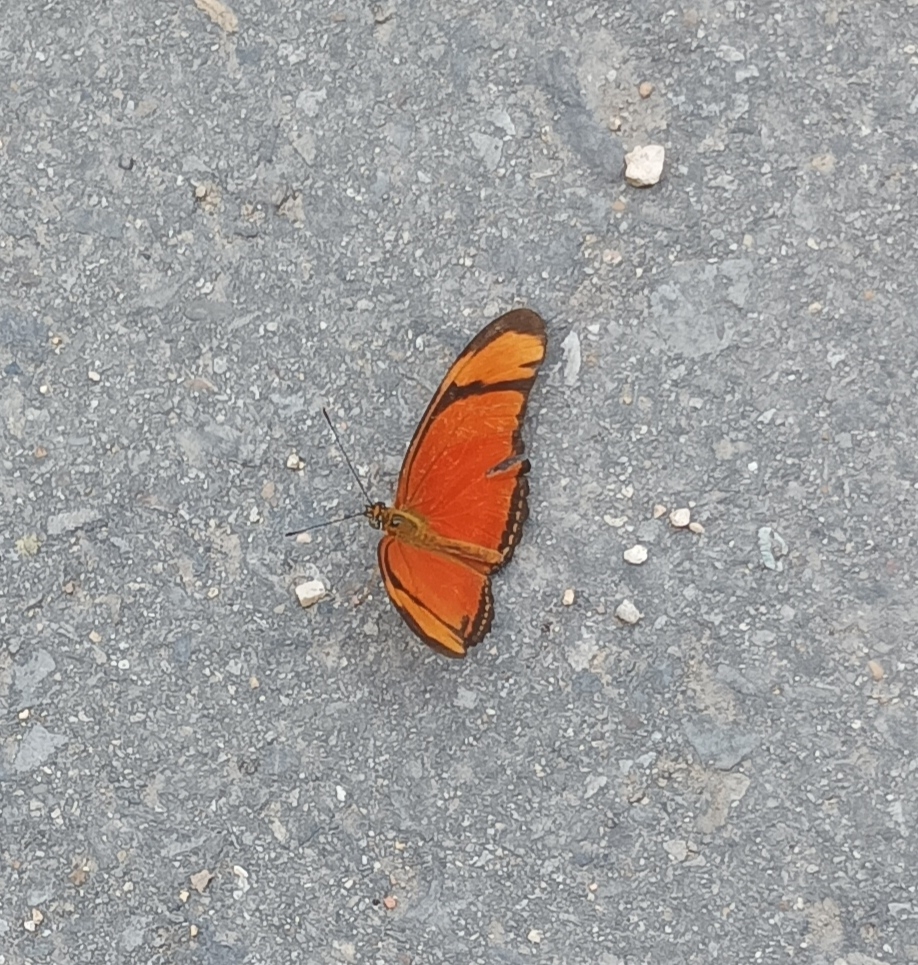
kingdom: Animalia
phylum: Arthropoda
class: Insecta
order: Lepidoptera
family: Nymphalidae
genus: Dryas
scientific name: Dryas iulia
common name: Flambeau
